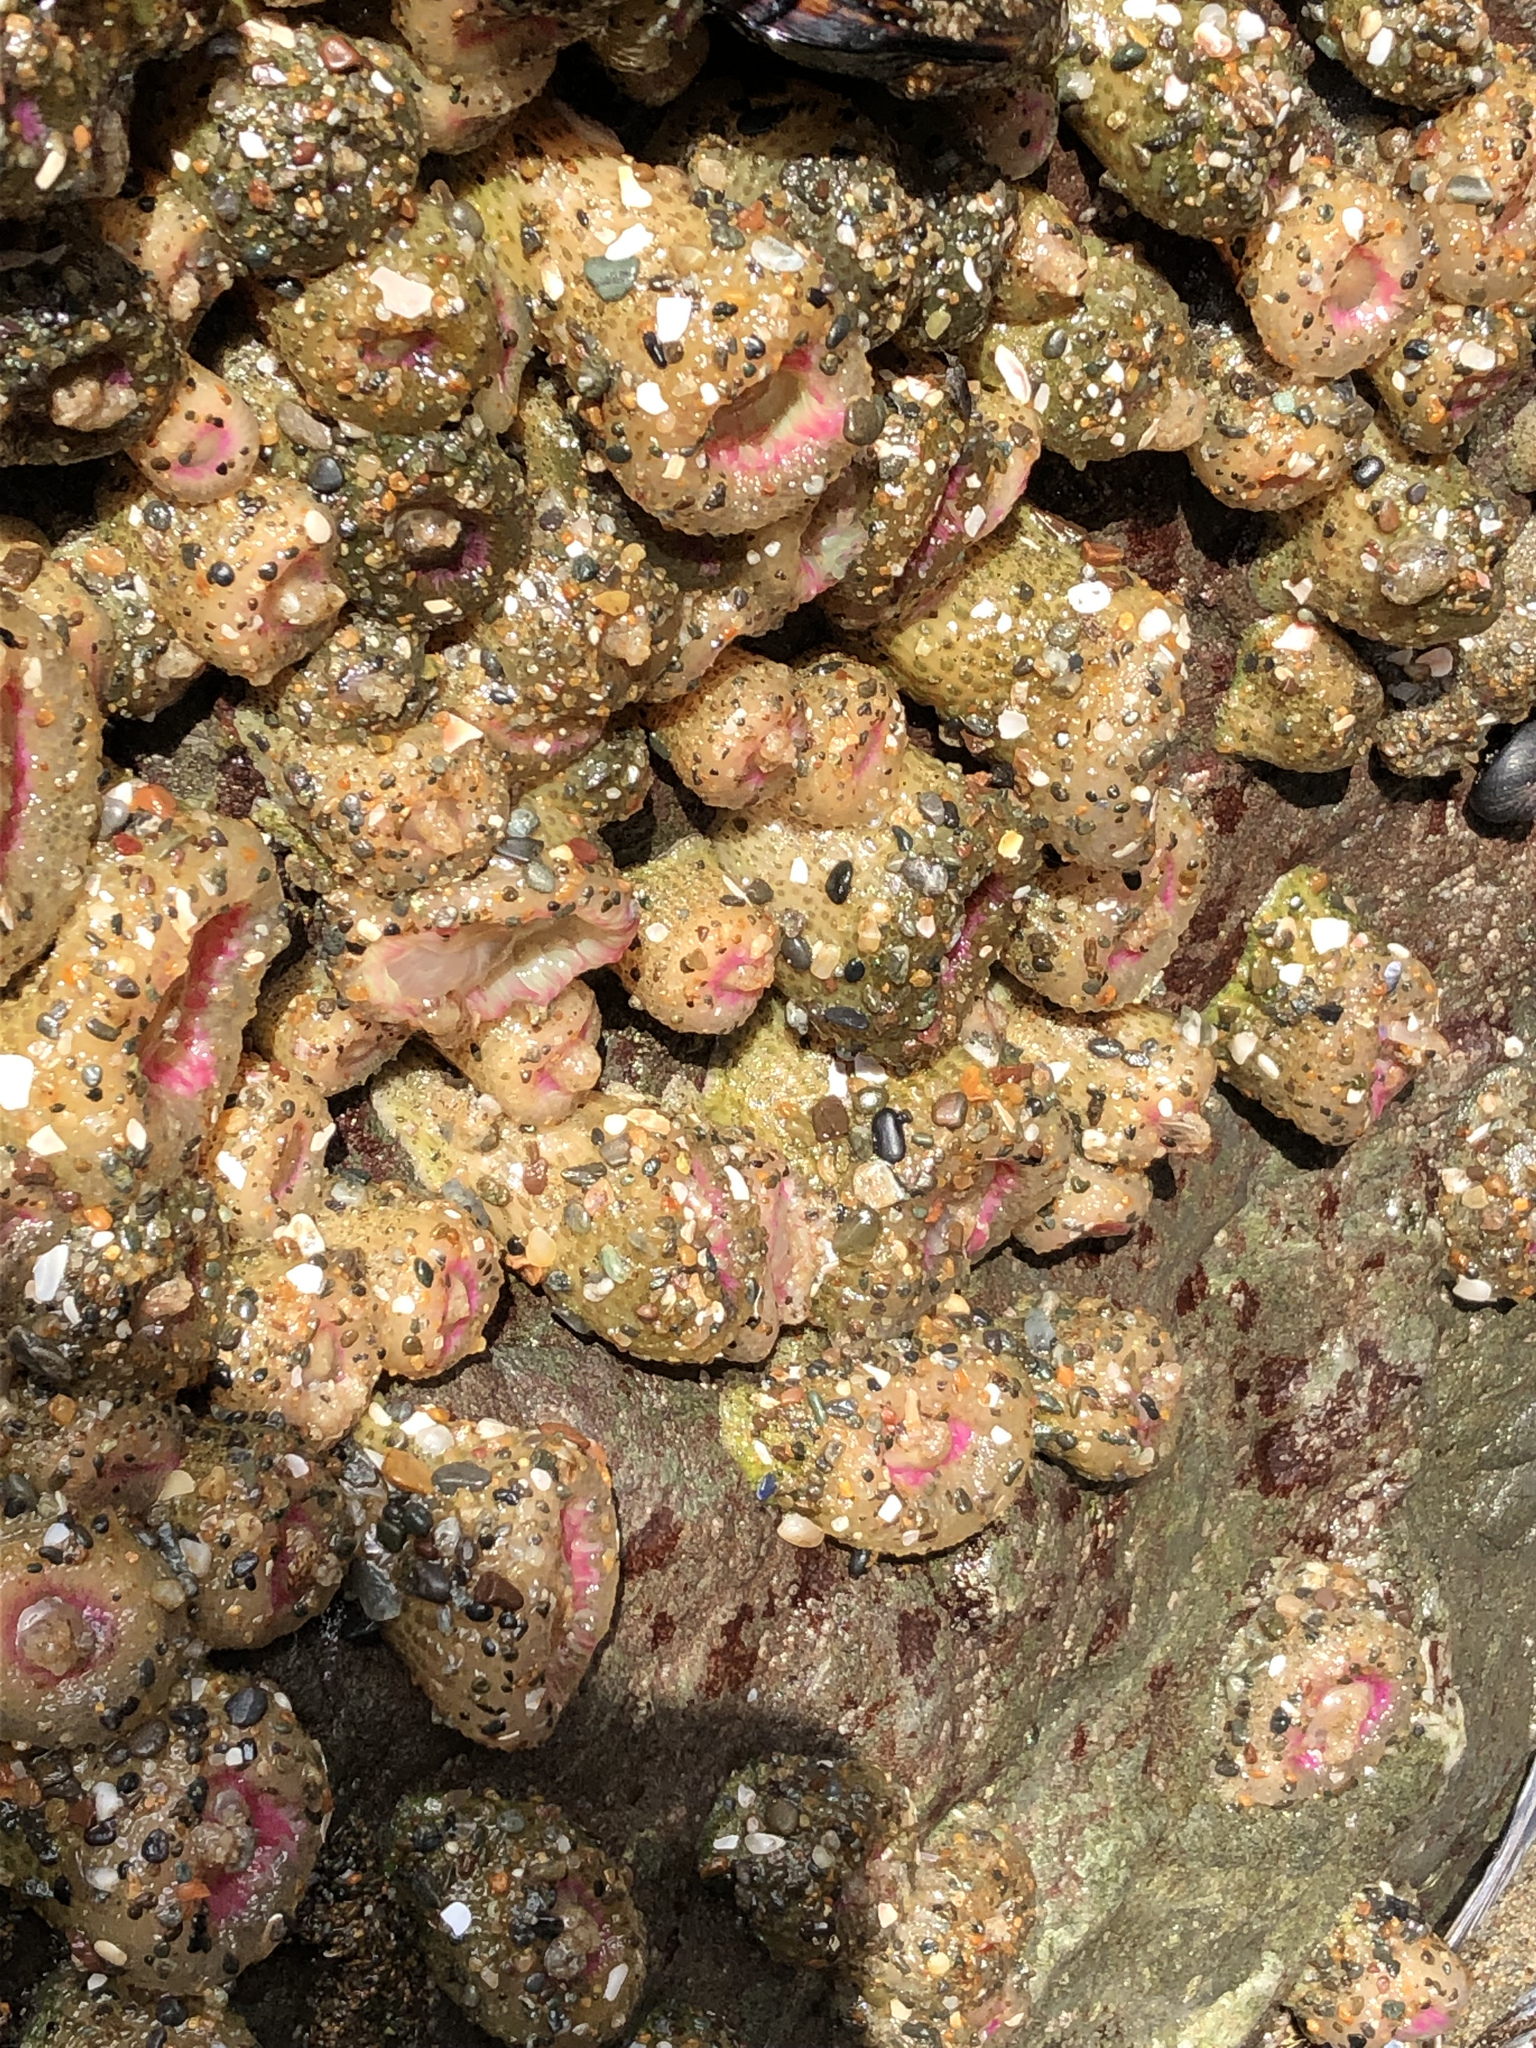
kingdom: Animalia
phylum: Cnidaria
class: Anthozoa
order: Actiniaria
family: Actiniidae
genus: Anthopleura
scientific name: Anthopleura elegantissima
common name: Clonal anemone
